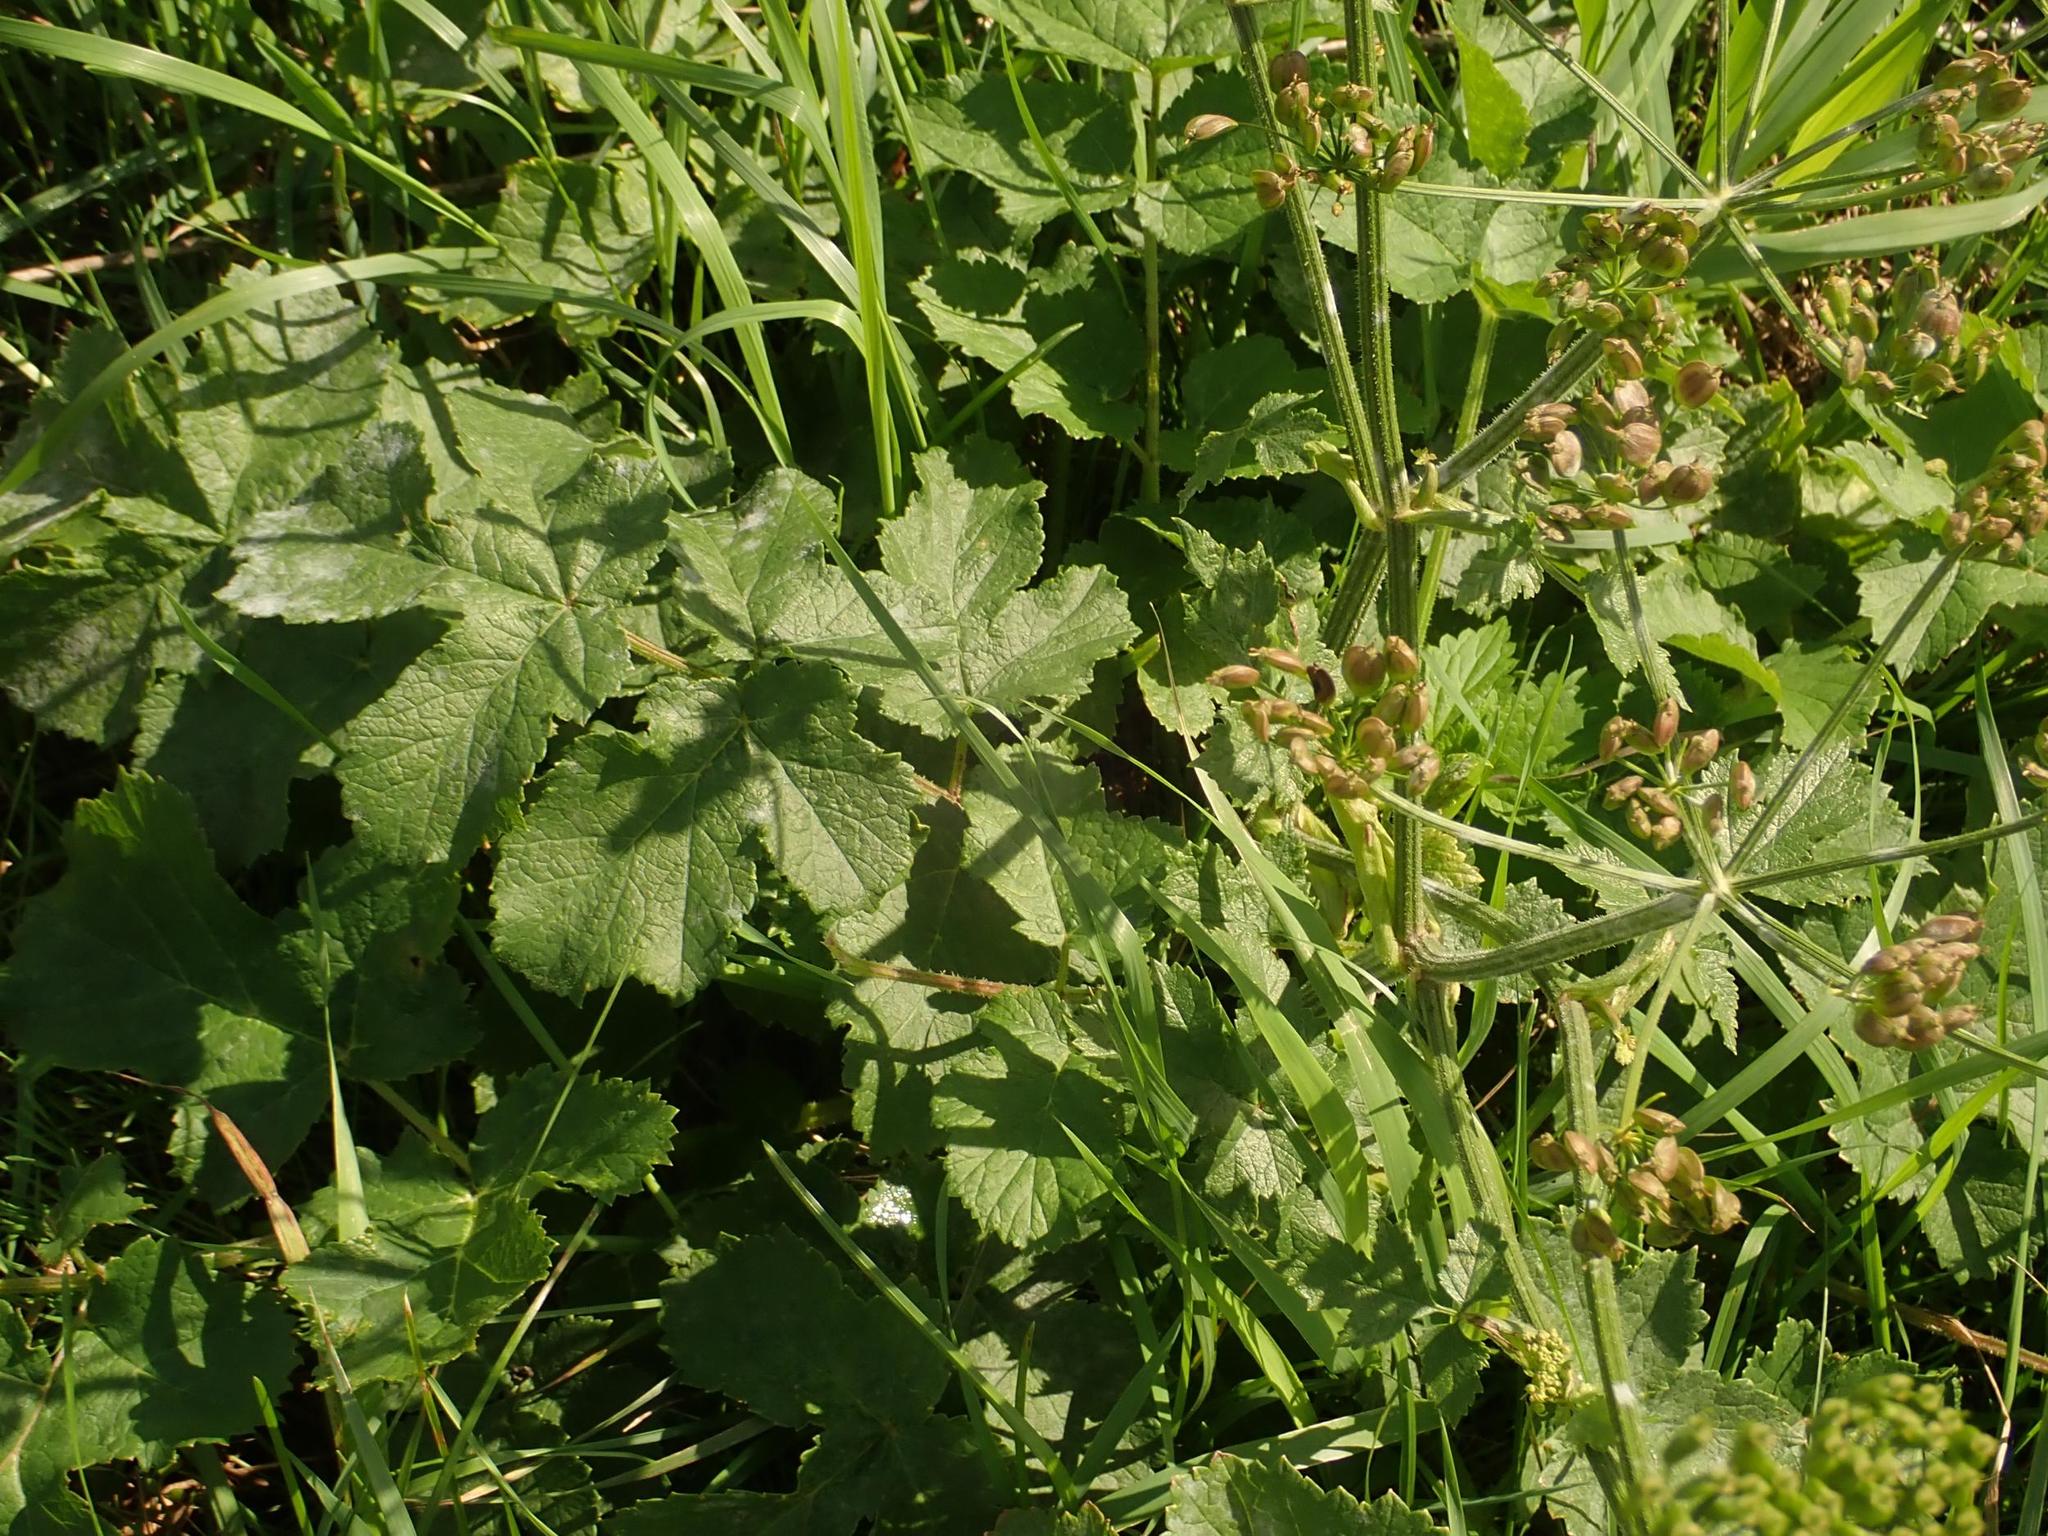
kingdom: Plantae
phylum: Tracheophyta
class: Magnoliopsida
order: Apiales
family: Apiaceae
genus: Heracleum
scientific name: Heracleum sphondylium
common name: Hogweed
